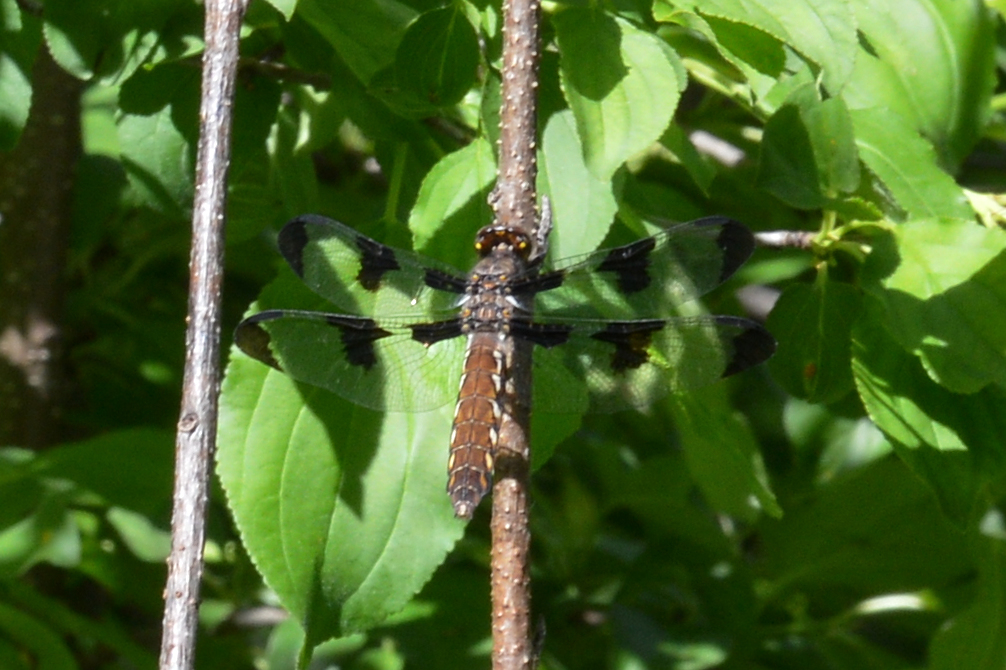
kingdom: Animalia
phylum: Arthropoda
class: Insecta
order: Odonata
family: Libellulidae
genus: Plathemis
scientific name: Plathemis lydia
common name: Common whitetail
